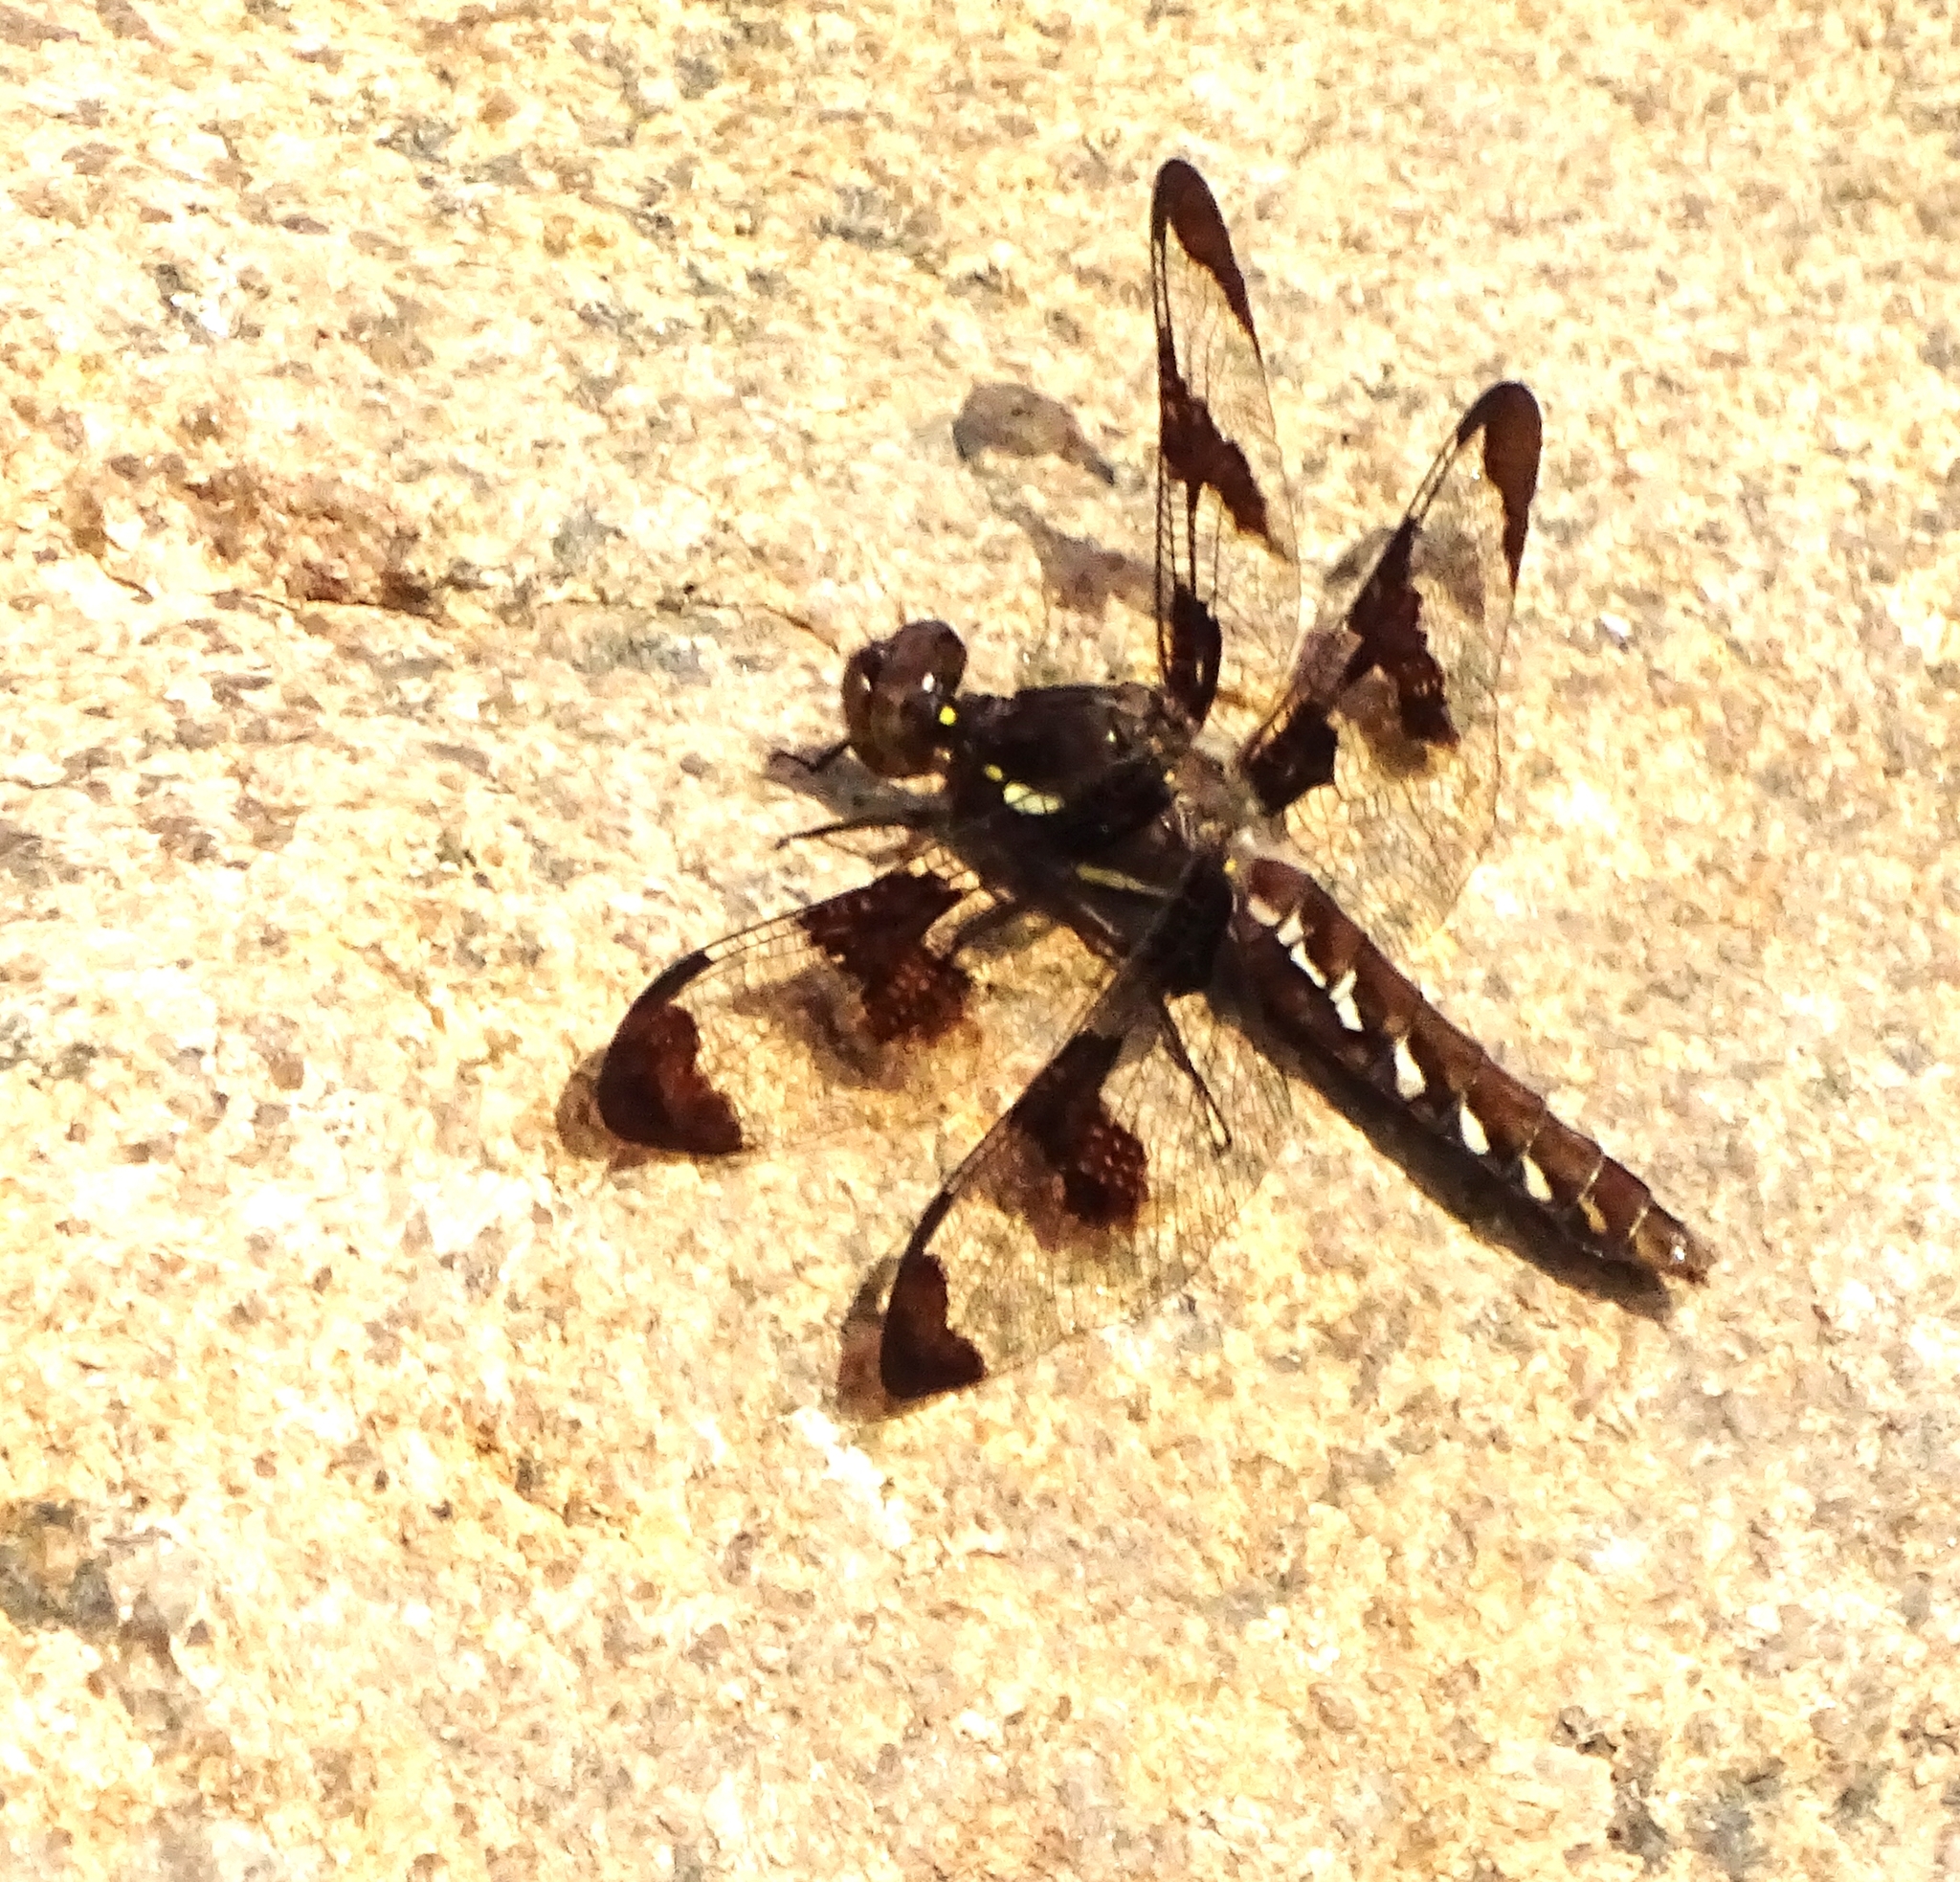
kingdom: Animalia
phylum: Arthropoda
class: Insecta
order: Odonata
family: Libellulidae
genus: Plathemis
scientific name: Plathemis lydia
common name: Common whitetail
